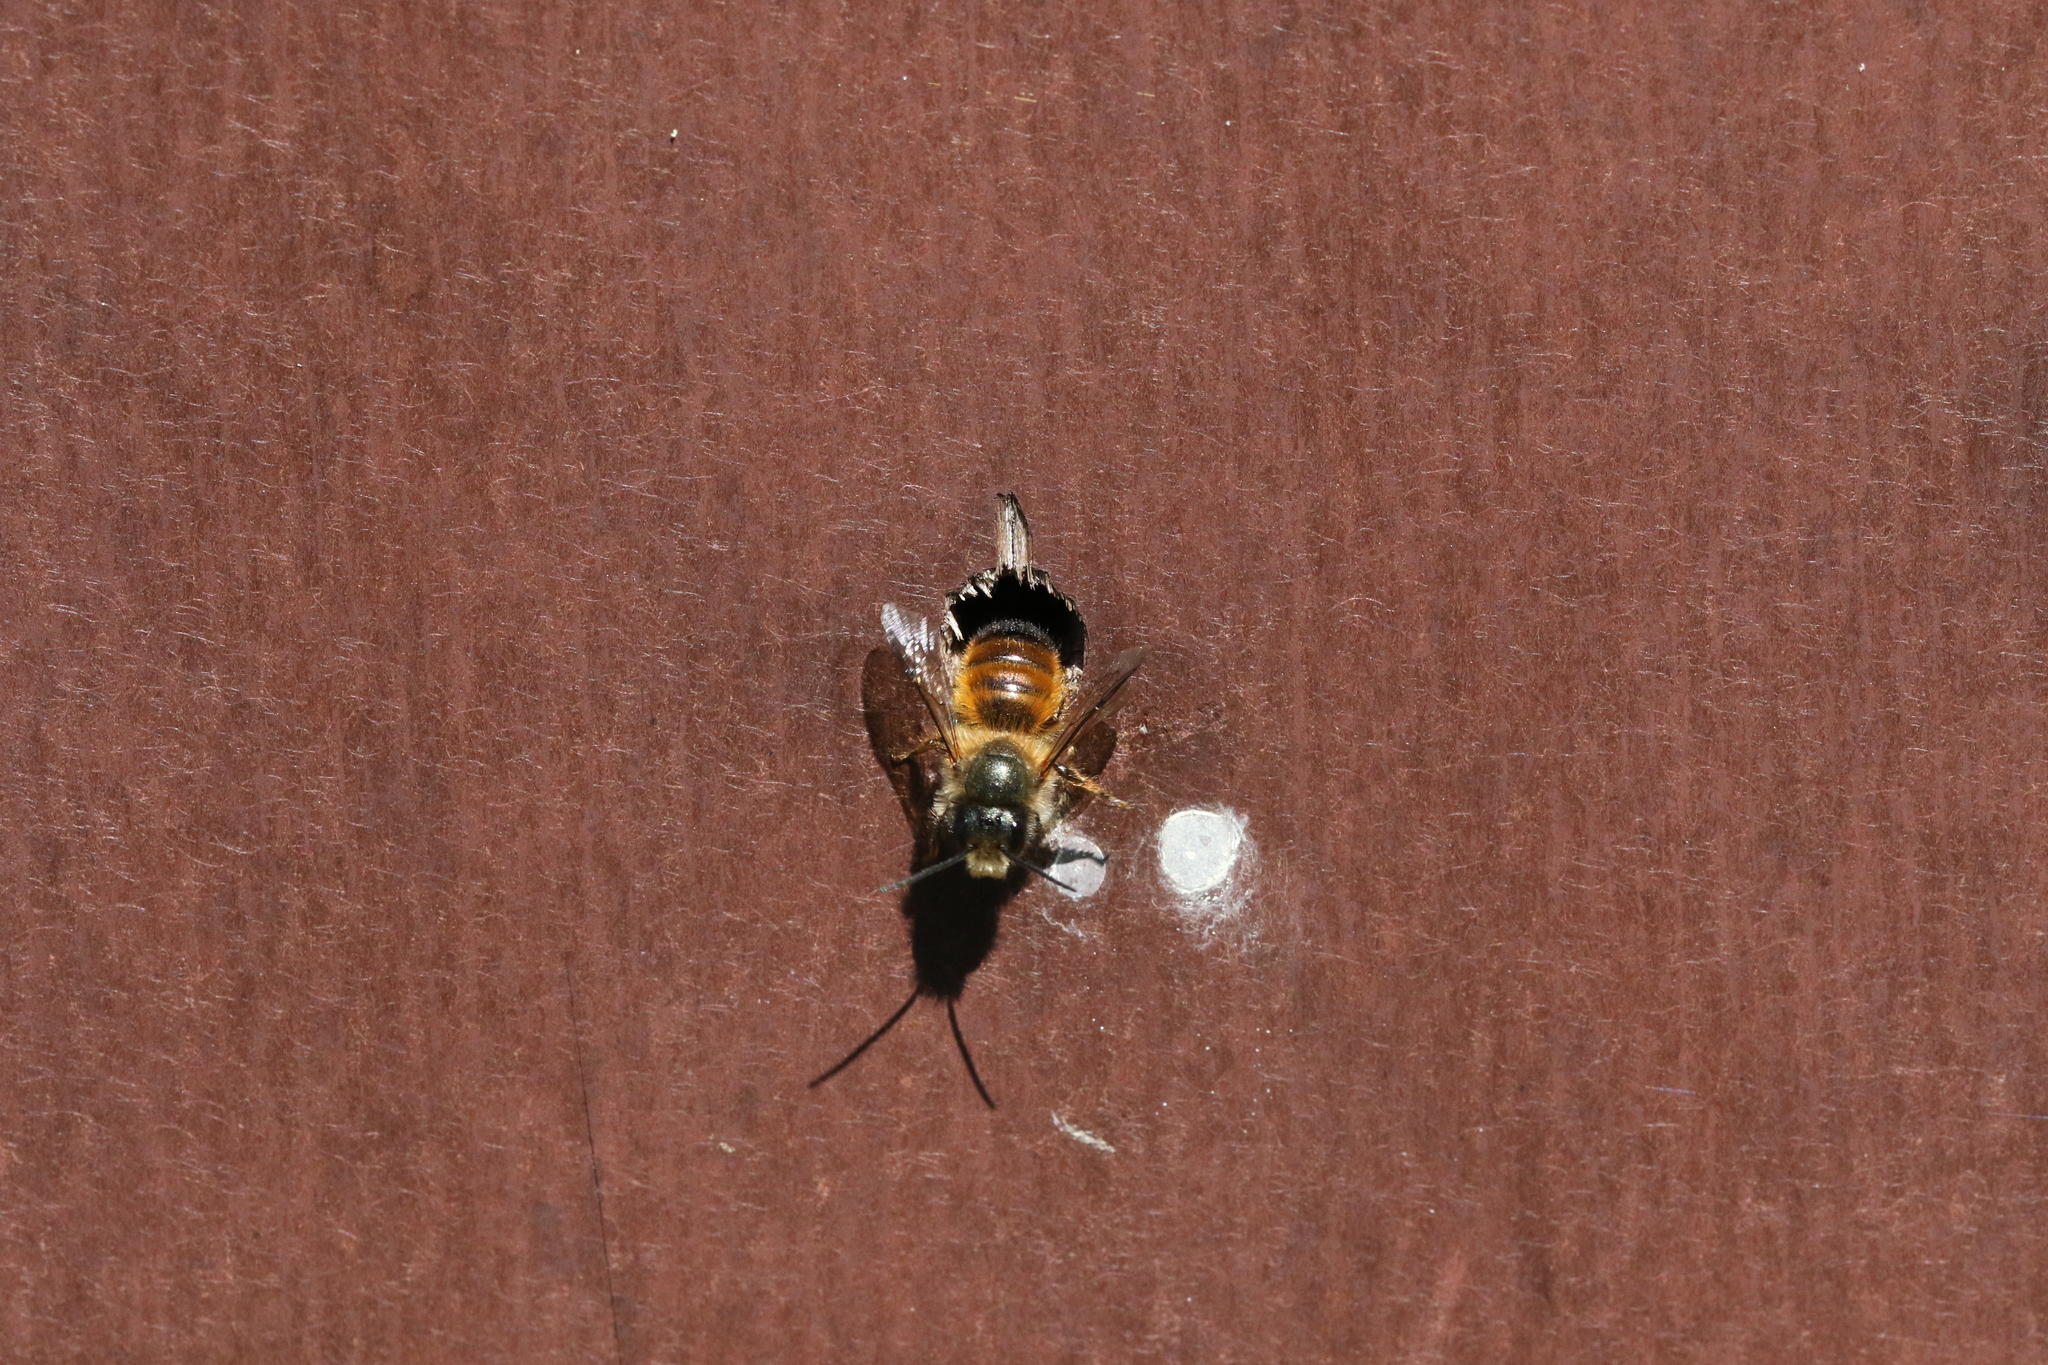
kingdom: Animalia
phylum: Arthropoda
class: Insecta
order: Hymenoptera
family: Megachilidae
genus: Osmia
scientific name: Osmia bicornis
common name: Red mason bee
